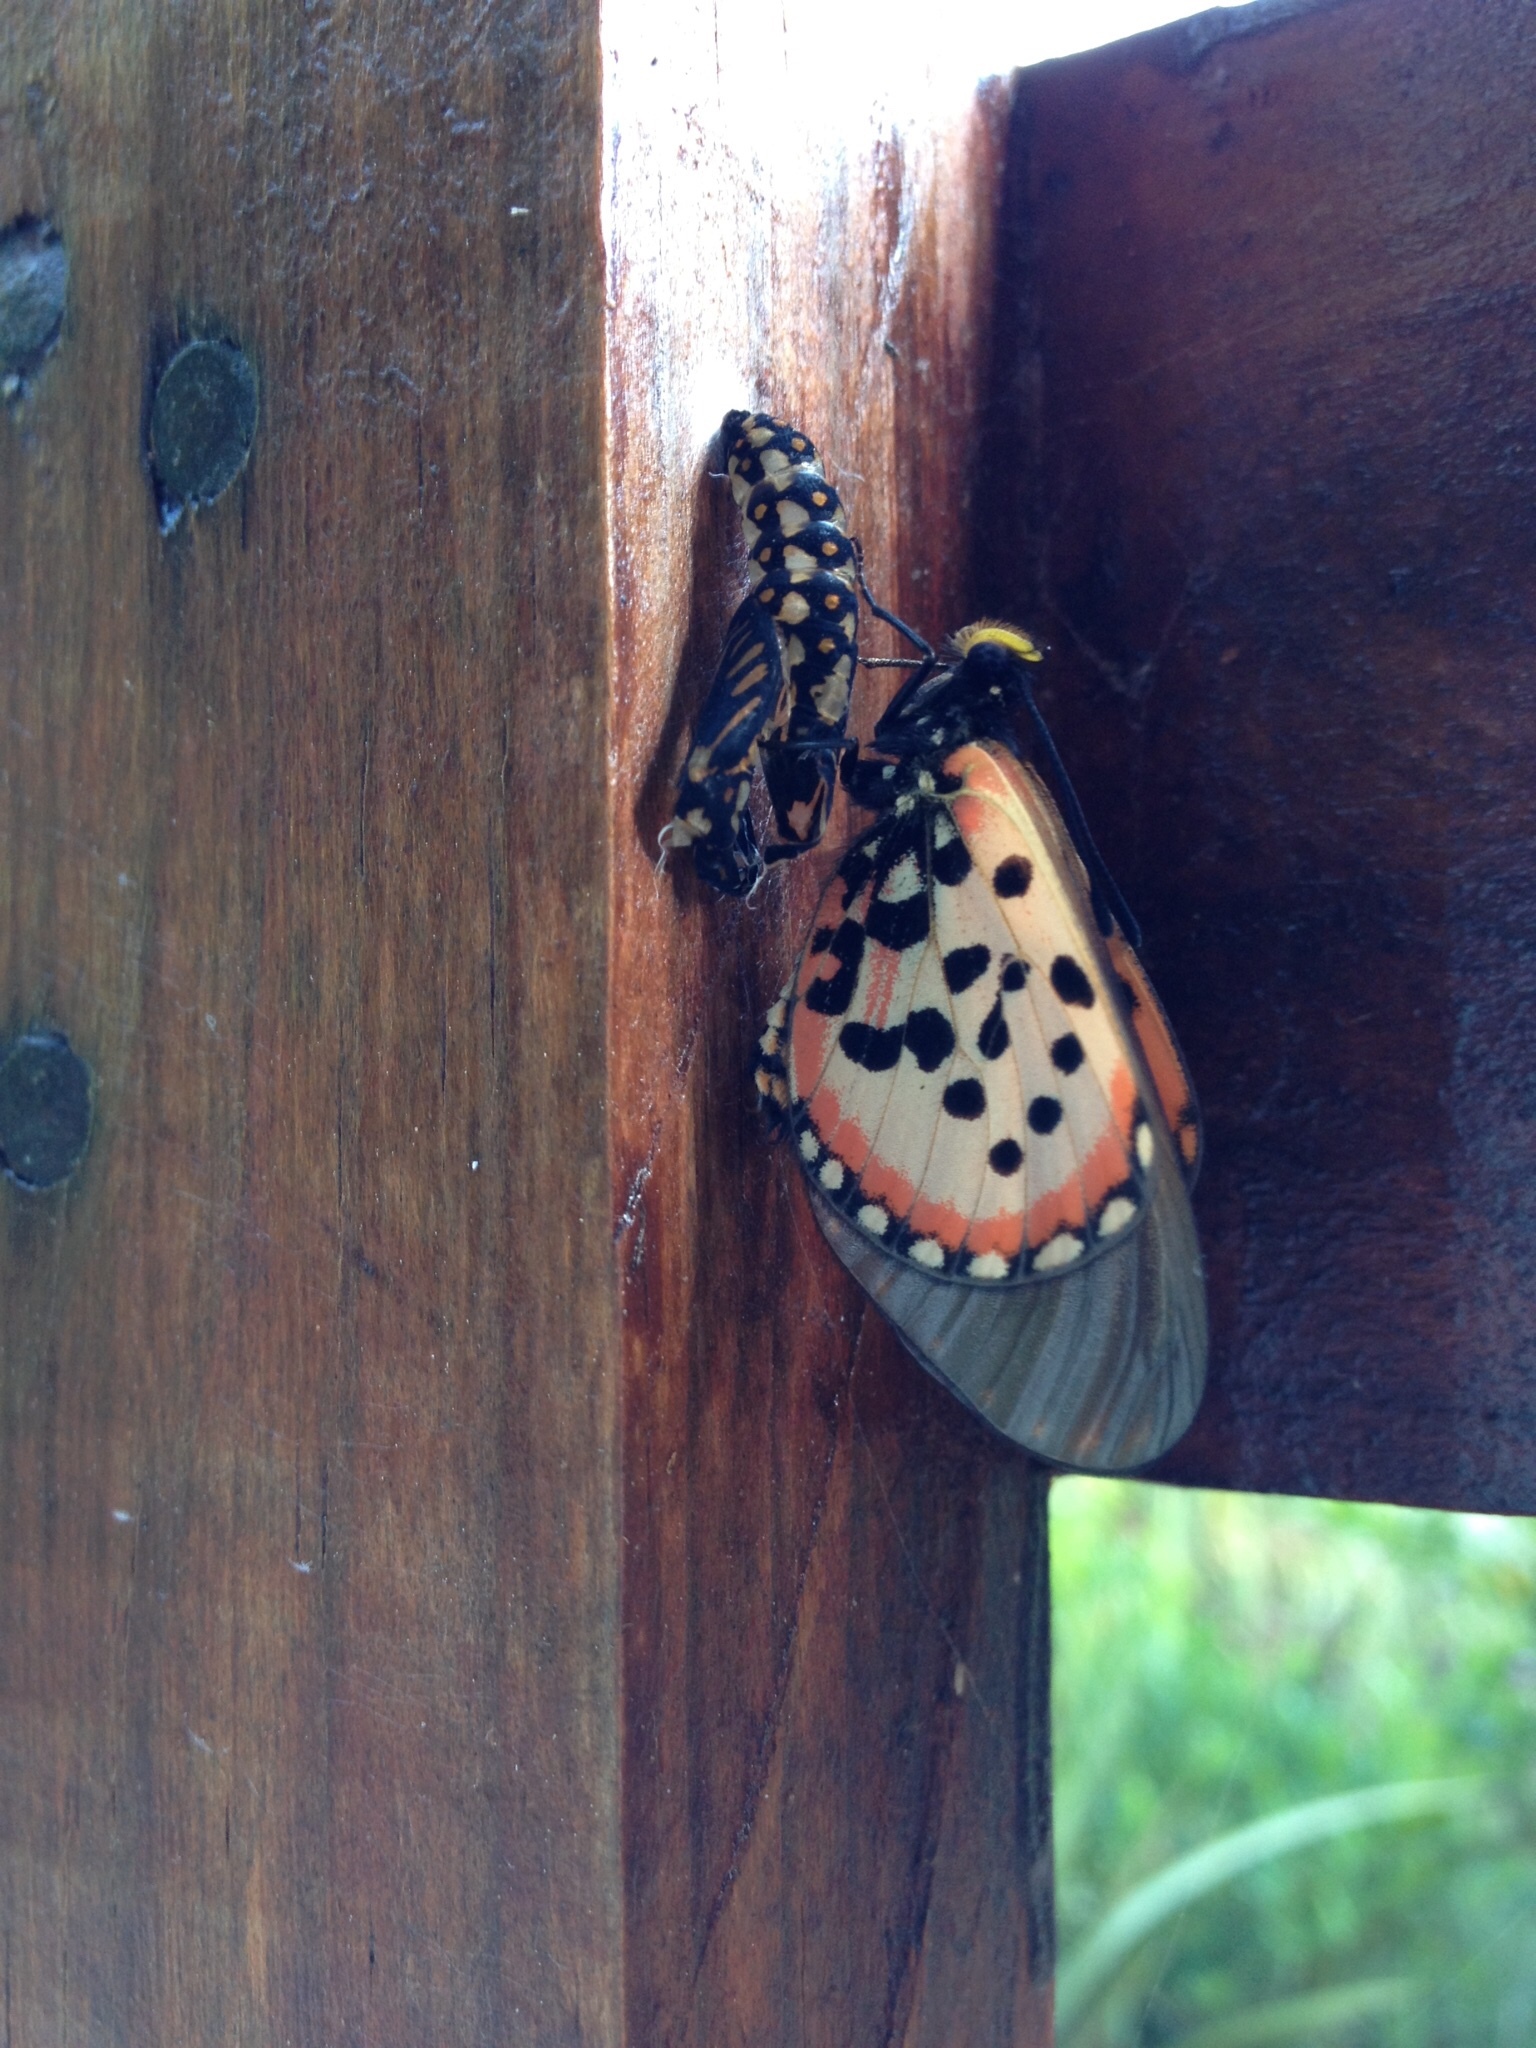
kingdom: Animalia
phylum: Arthropoda
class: Insecta
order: Lepidoptera
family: Nymphalidae
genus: Acraea
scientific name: Acraea horta
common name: Garden acraea
